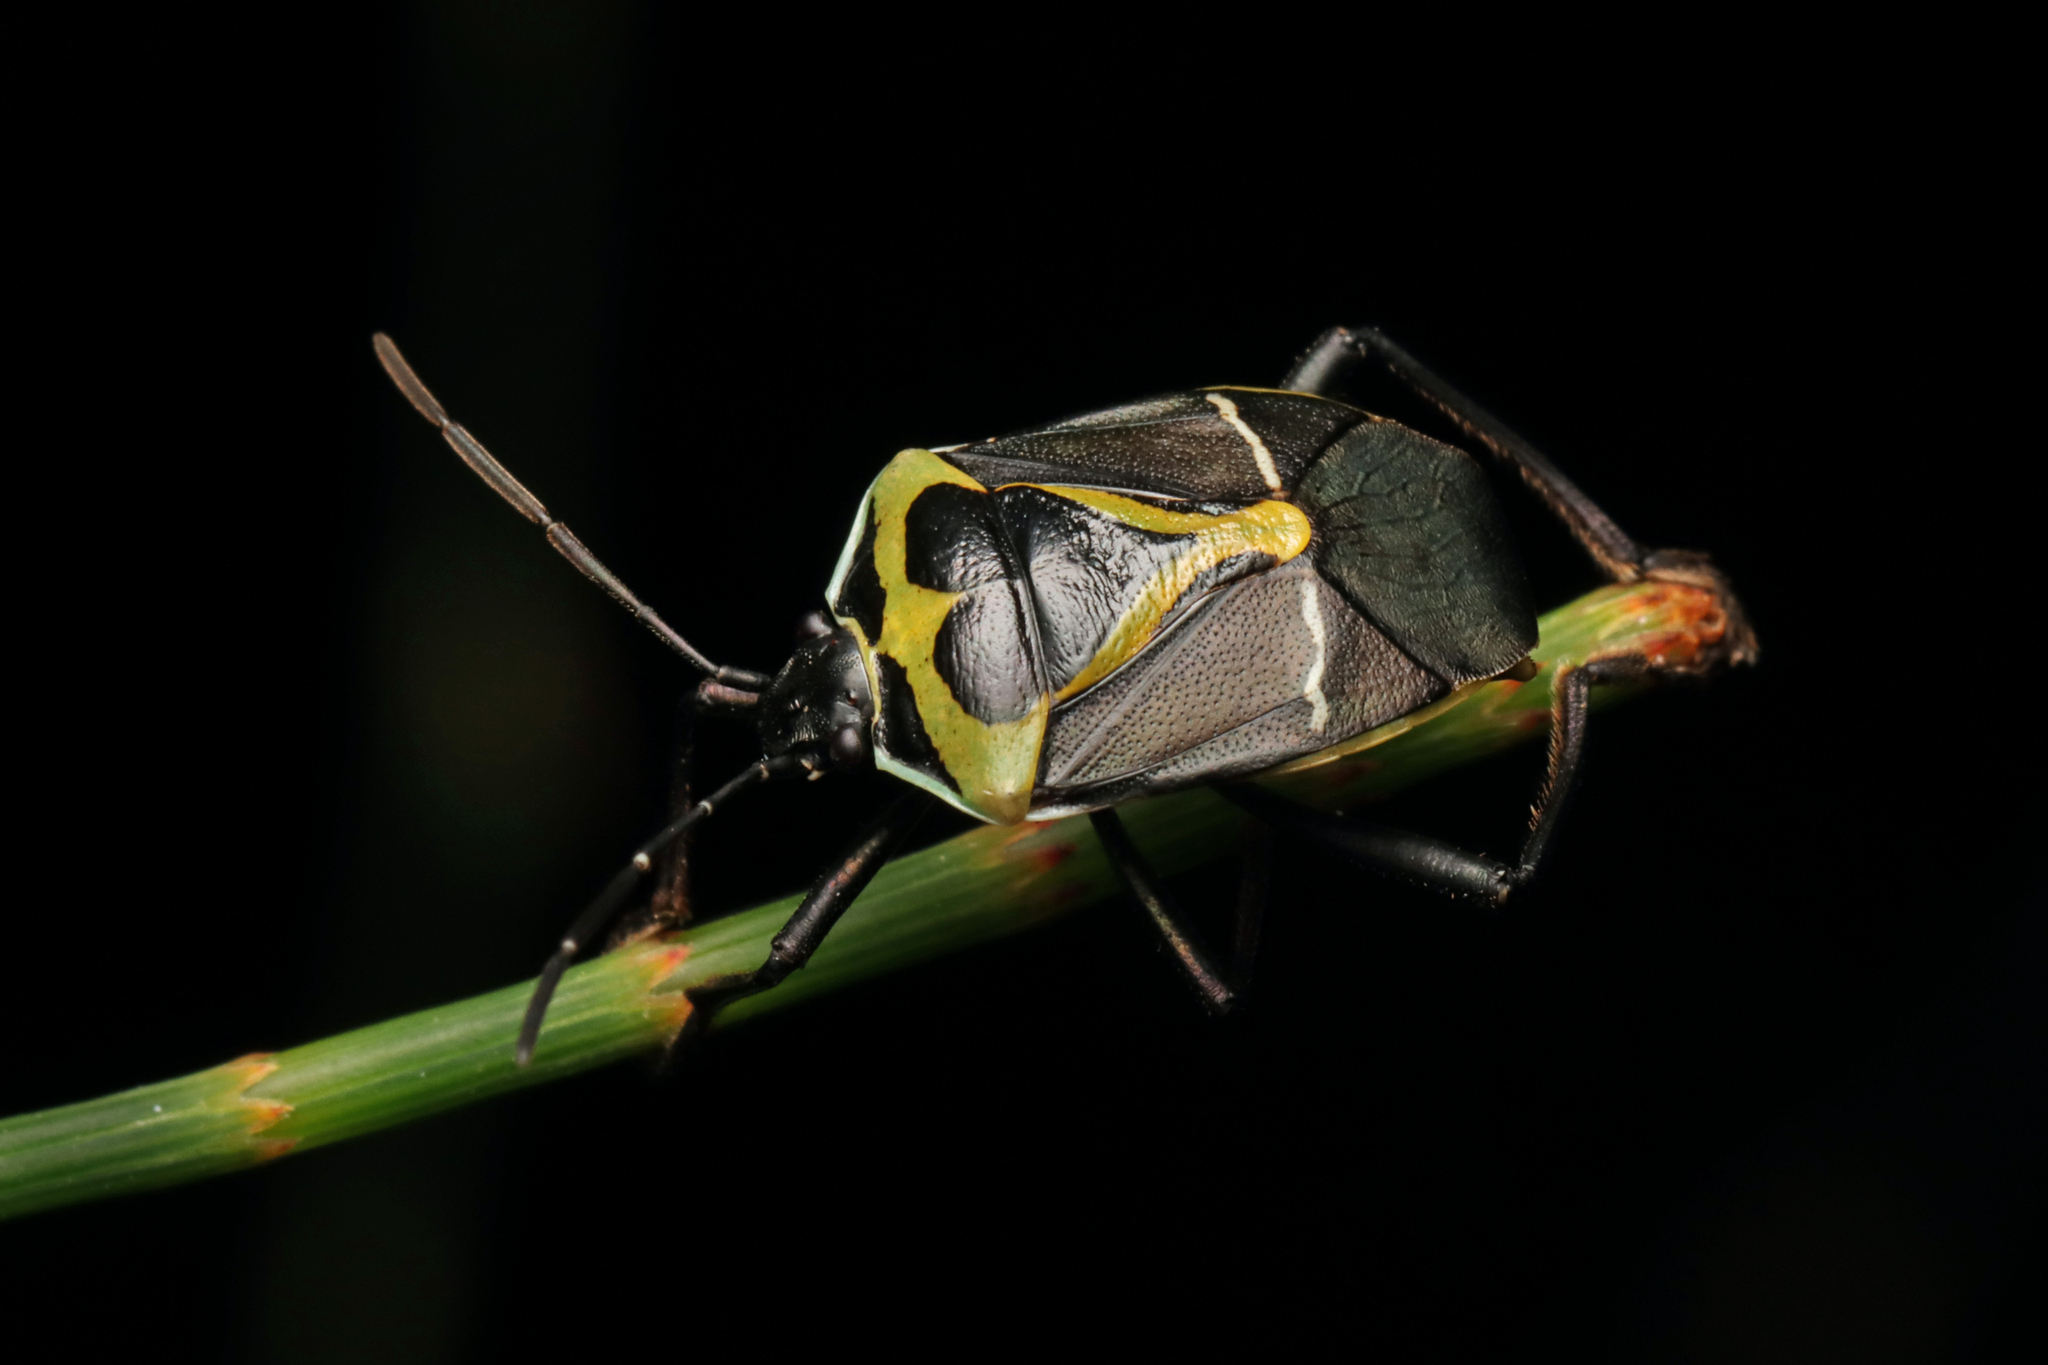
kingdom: Animalia
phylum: Arthropoda
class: Insecta
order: Hemiptera
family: Pentatomidae
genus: Commius
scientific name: Commius
